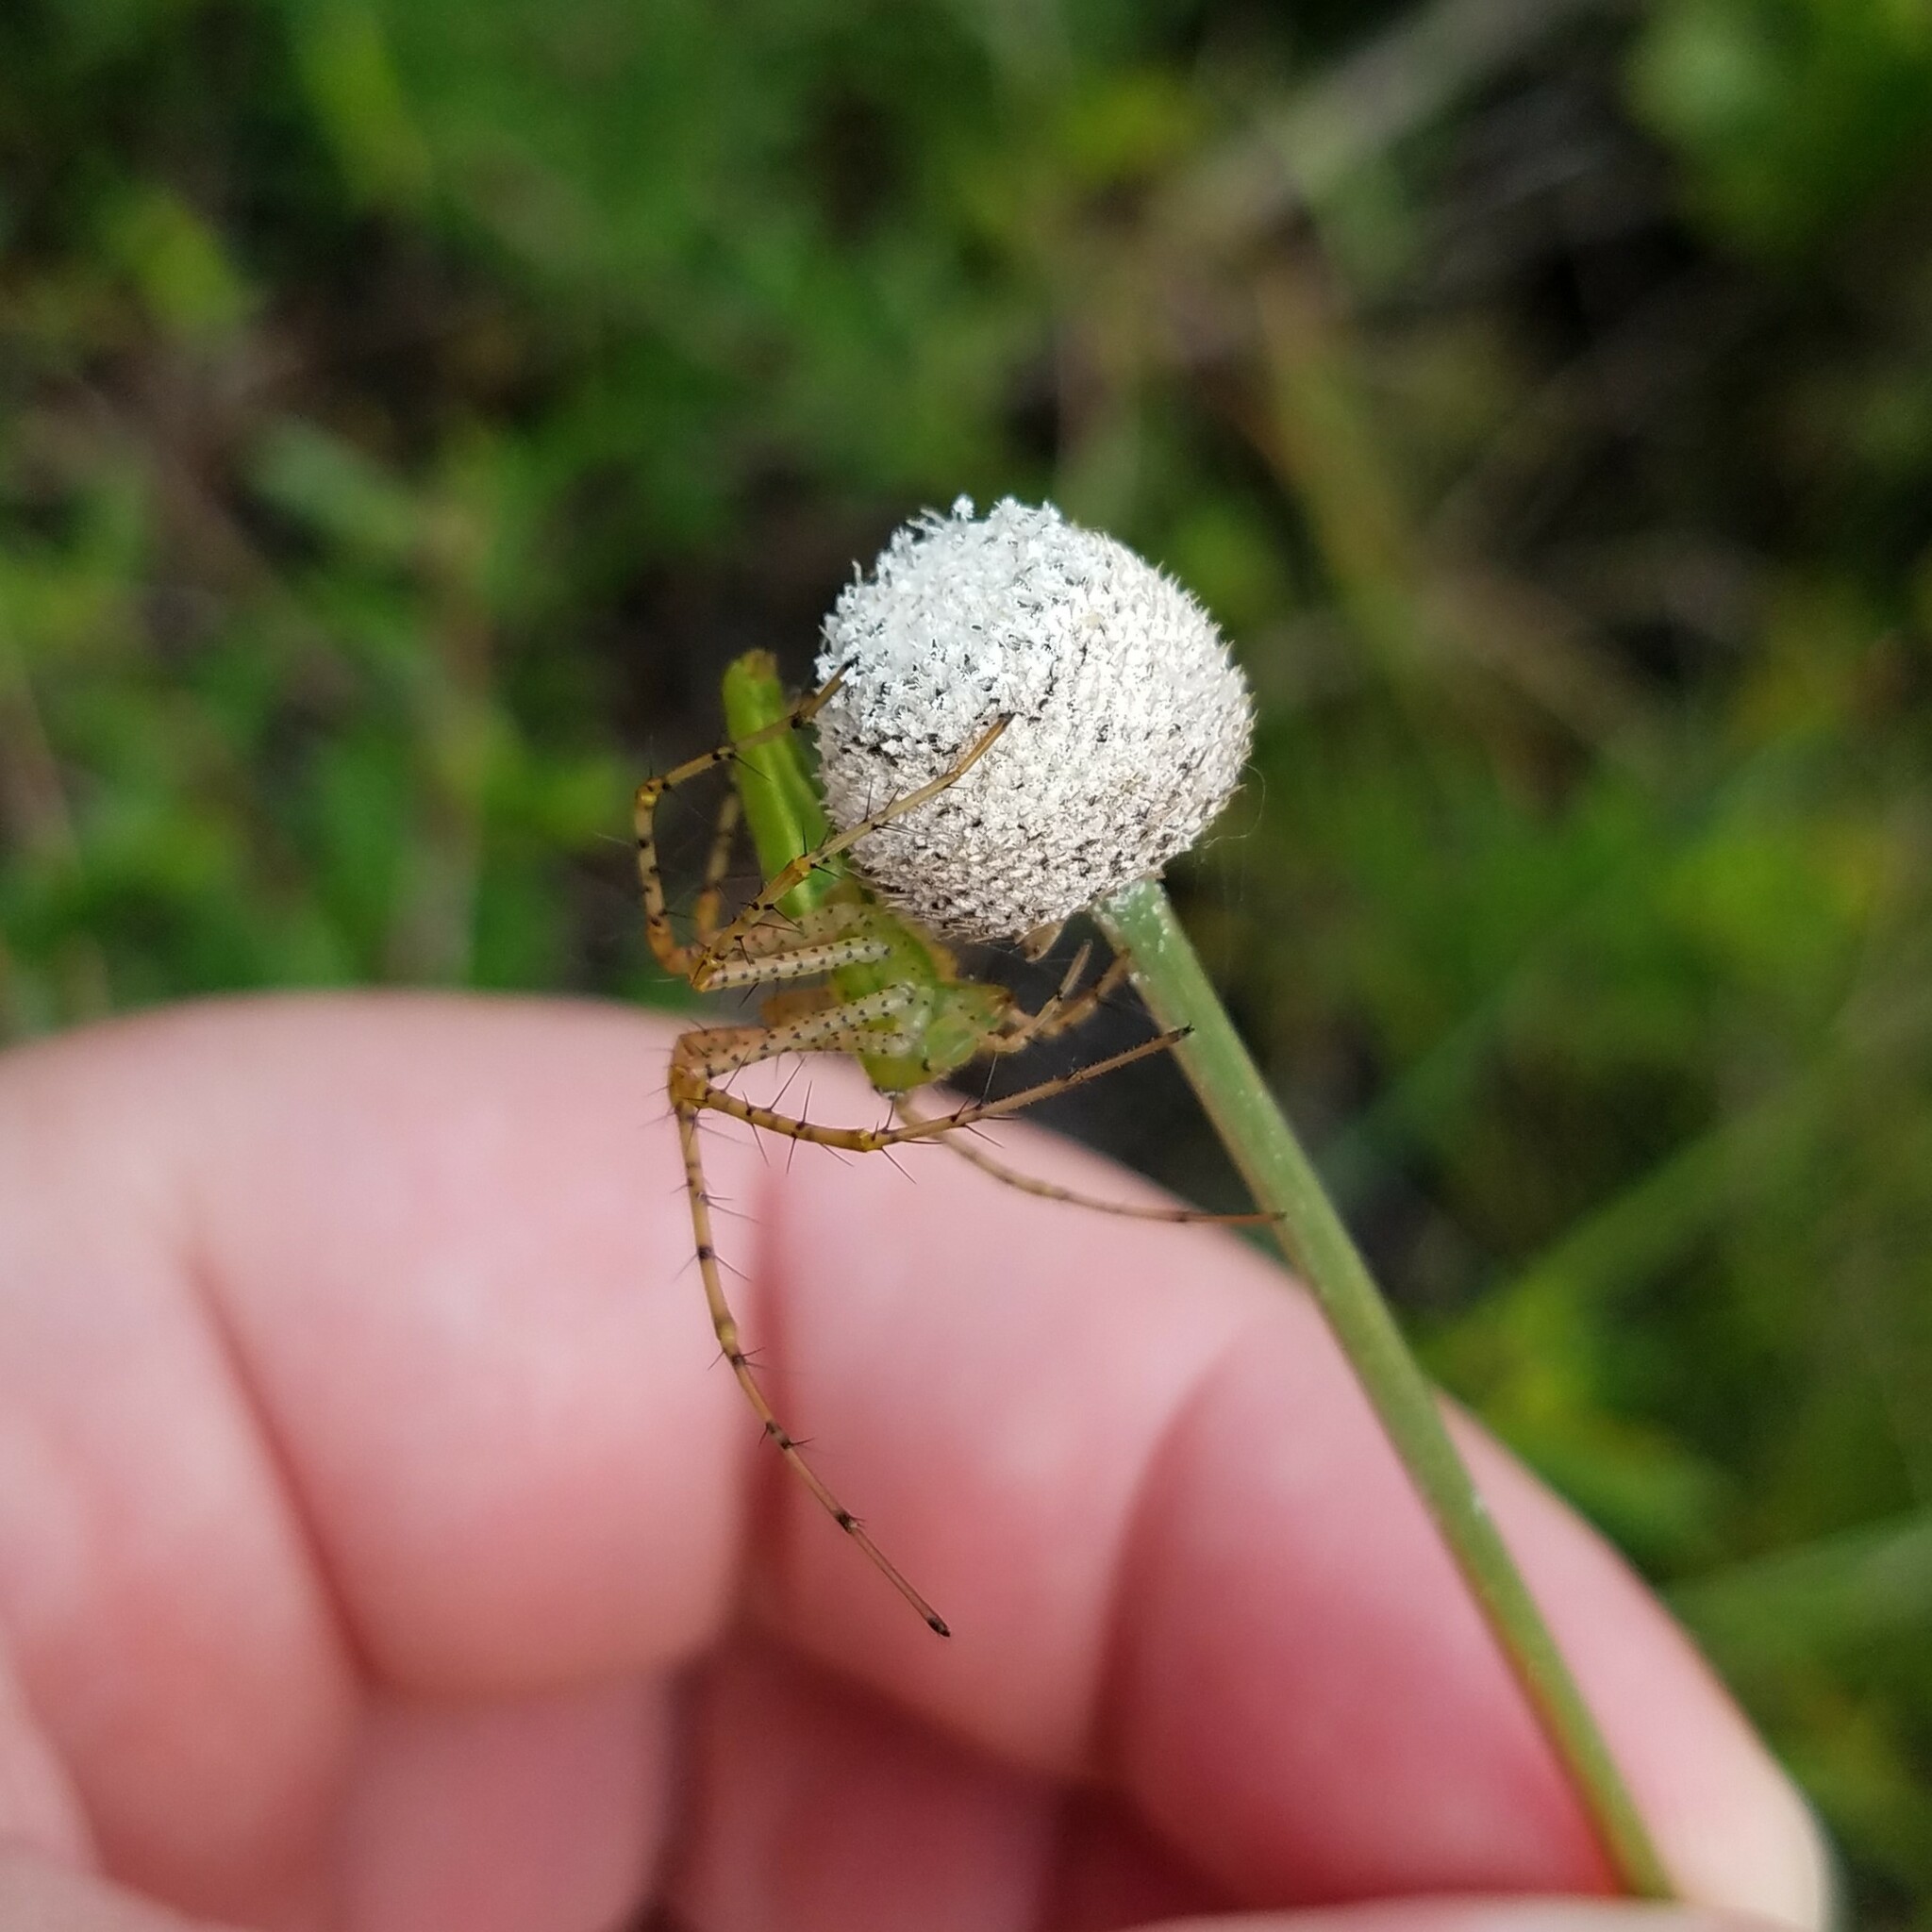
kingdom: Animalia
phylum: Arthropoda
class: Arachnida
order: Araneae
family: Oxyopidae
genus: Peucetia
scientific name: Peucetia viridans
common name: Lynx spiders
